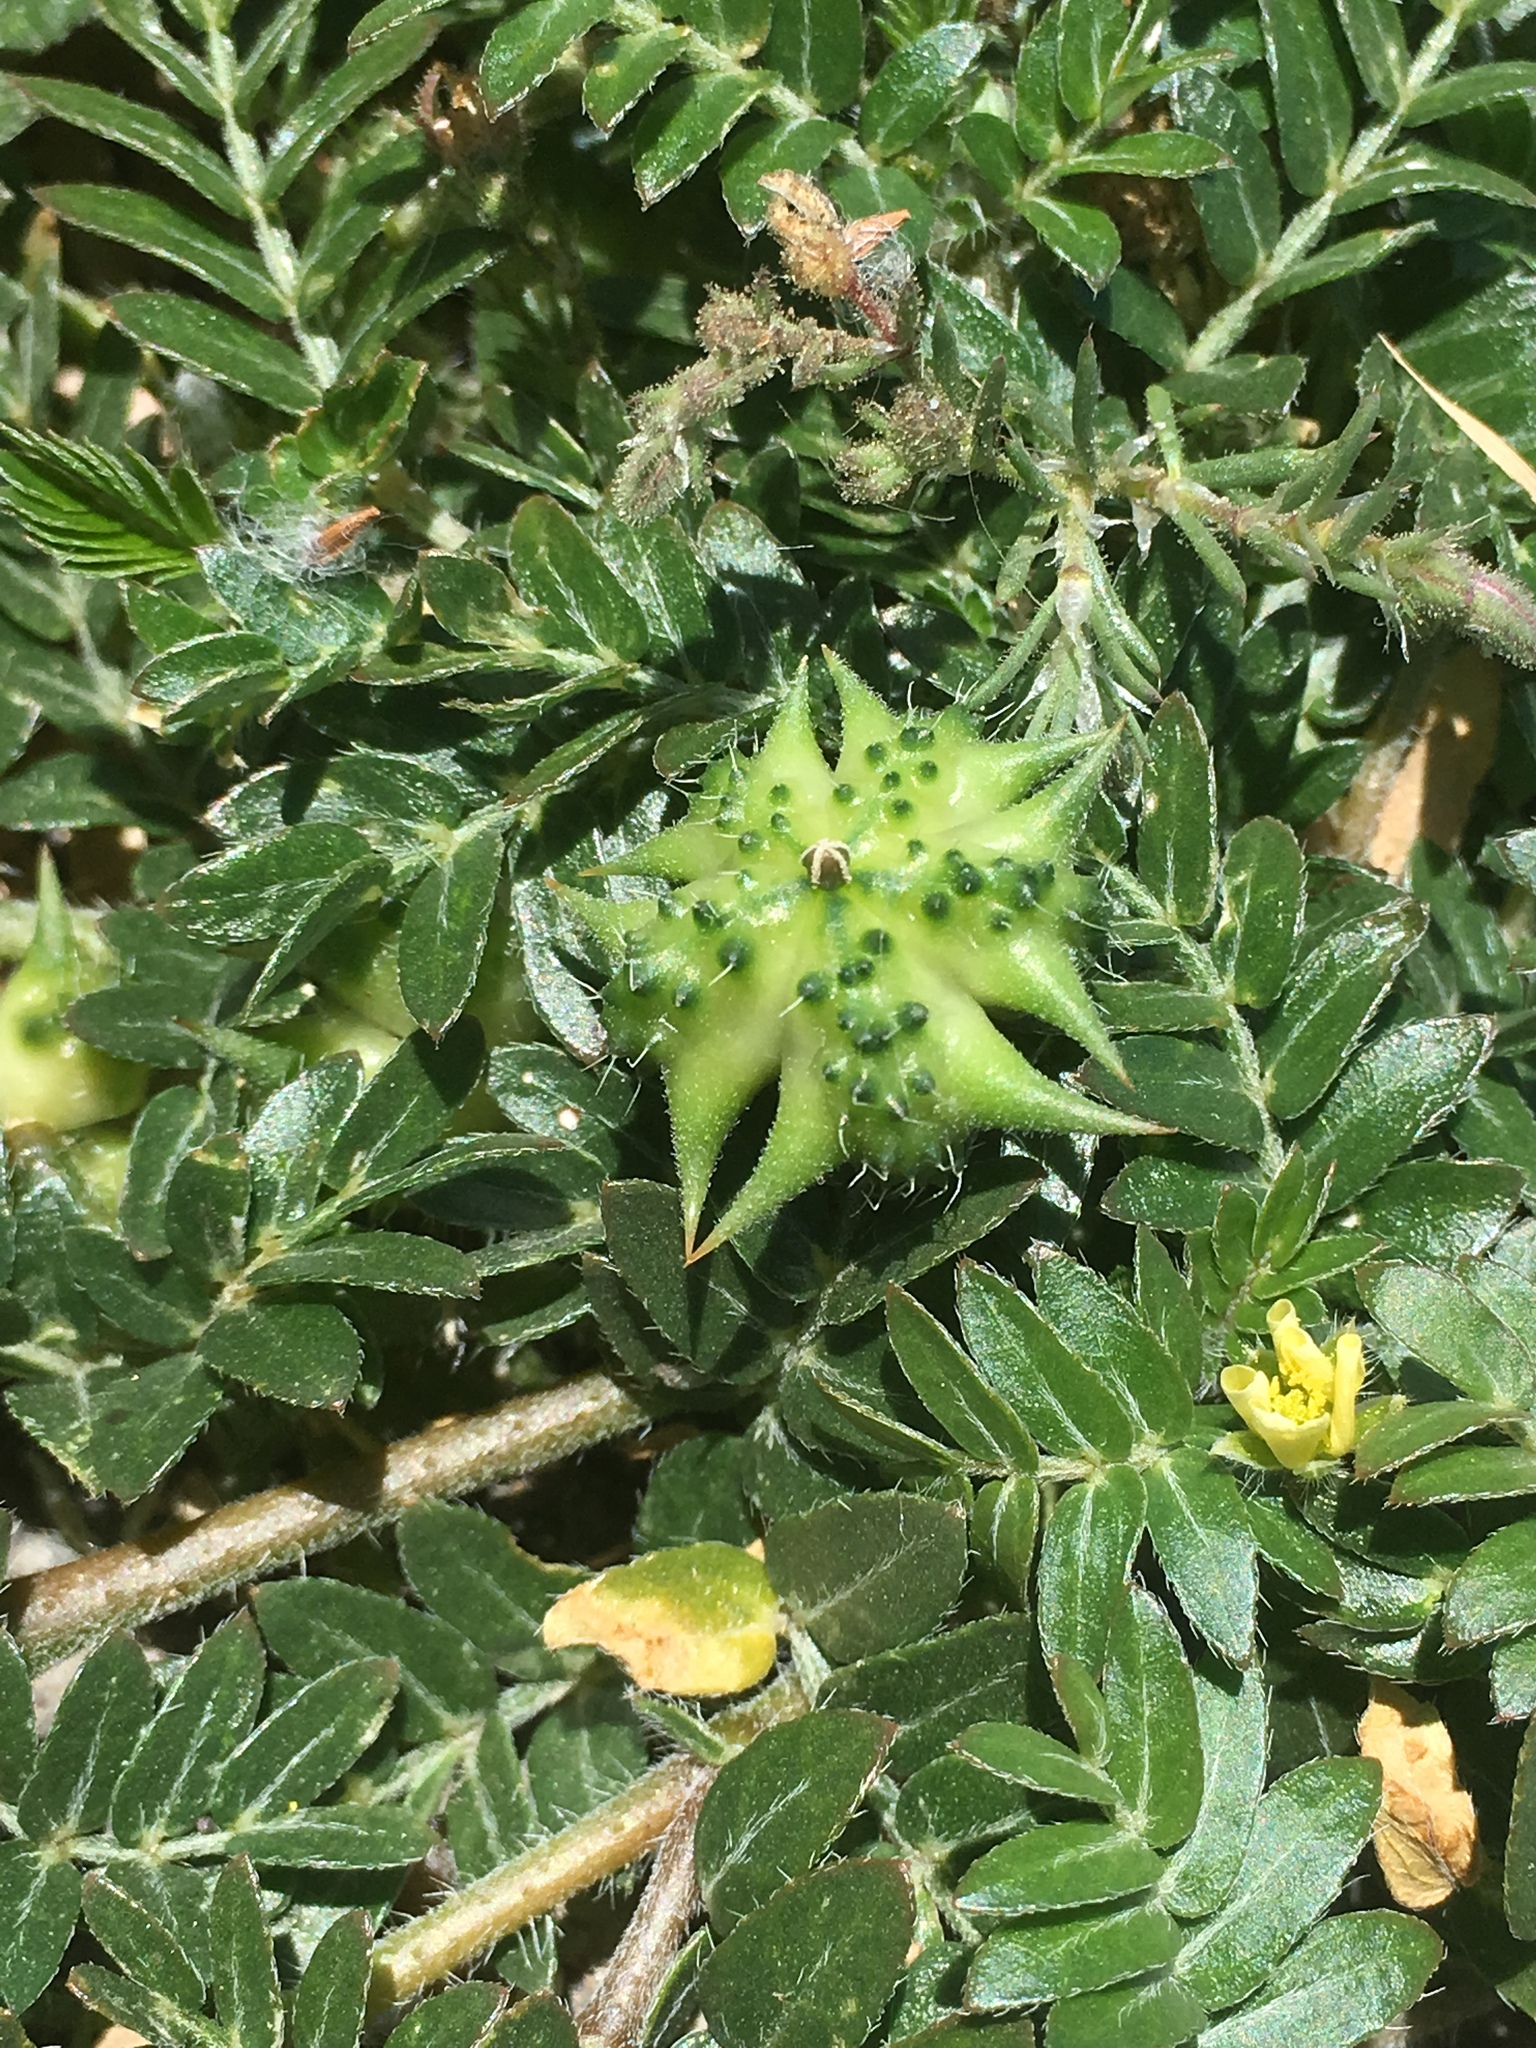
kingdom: Plantae
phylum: Tracheophyta
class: Magnoliopsida
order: Zygophyllales
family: Zygophyllaceae
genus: Tribulus
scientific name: Tribulus terrestris
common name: Puncturevine
